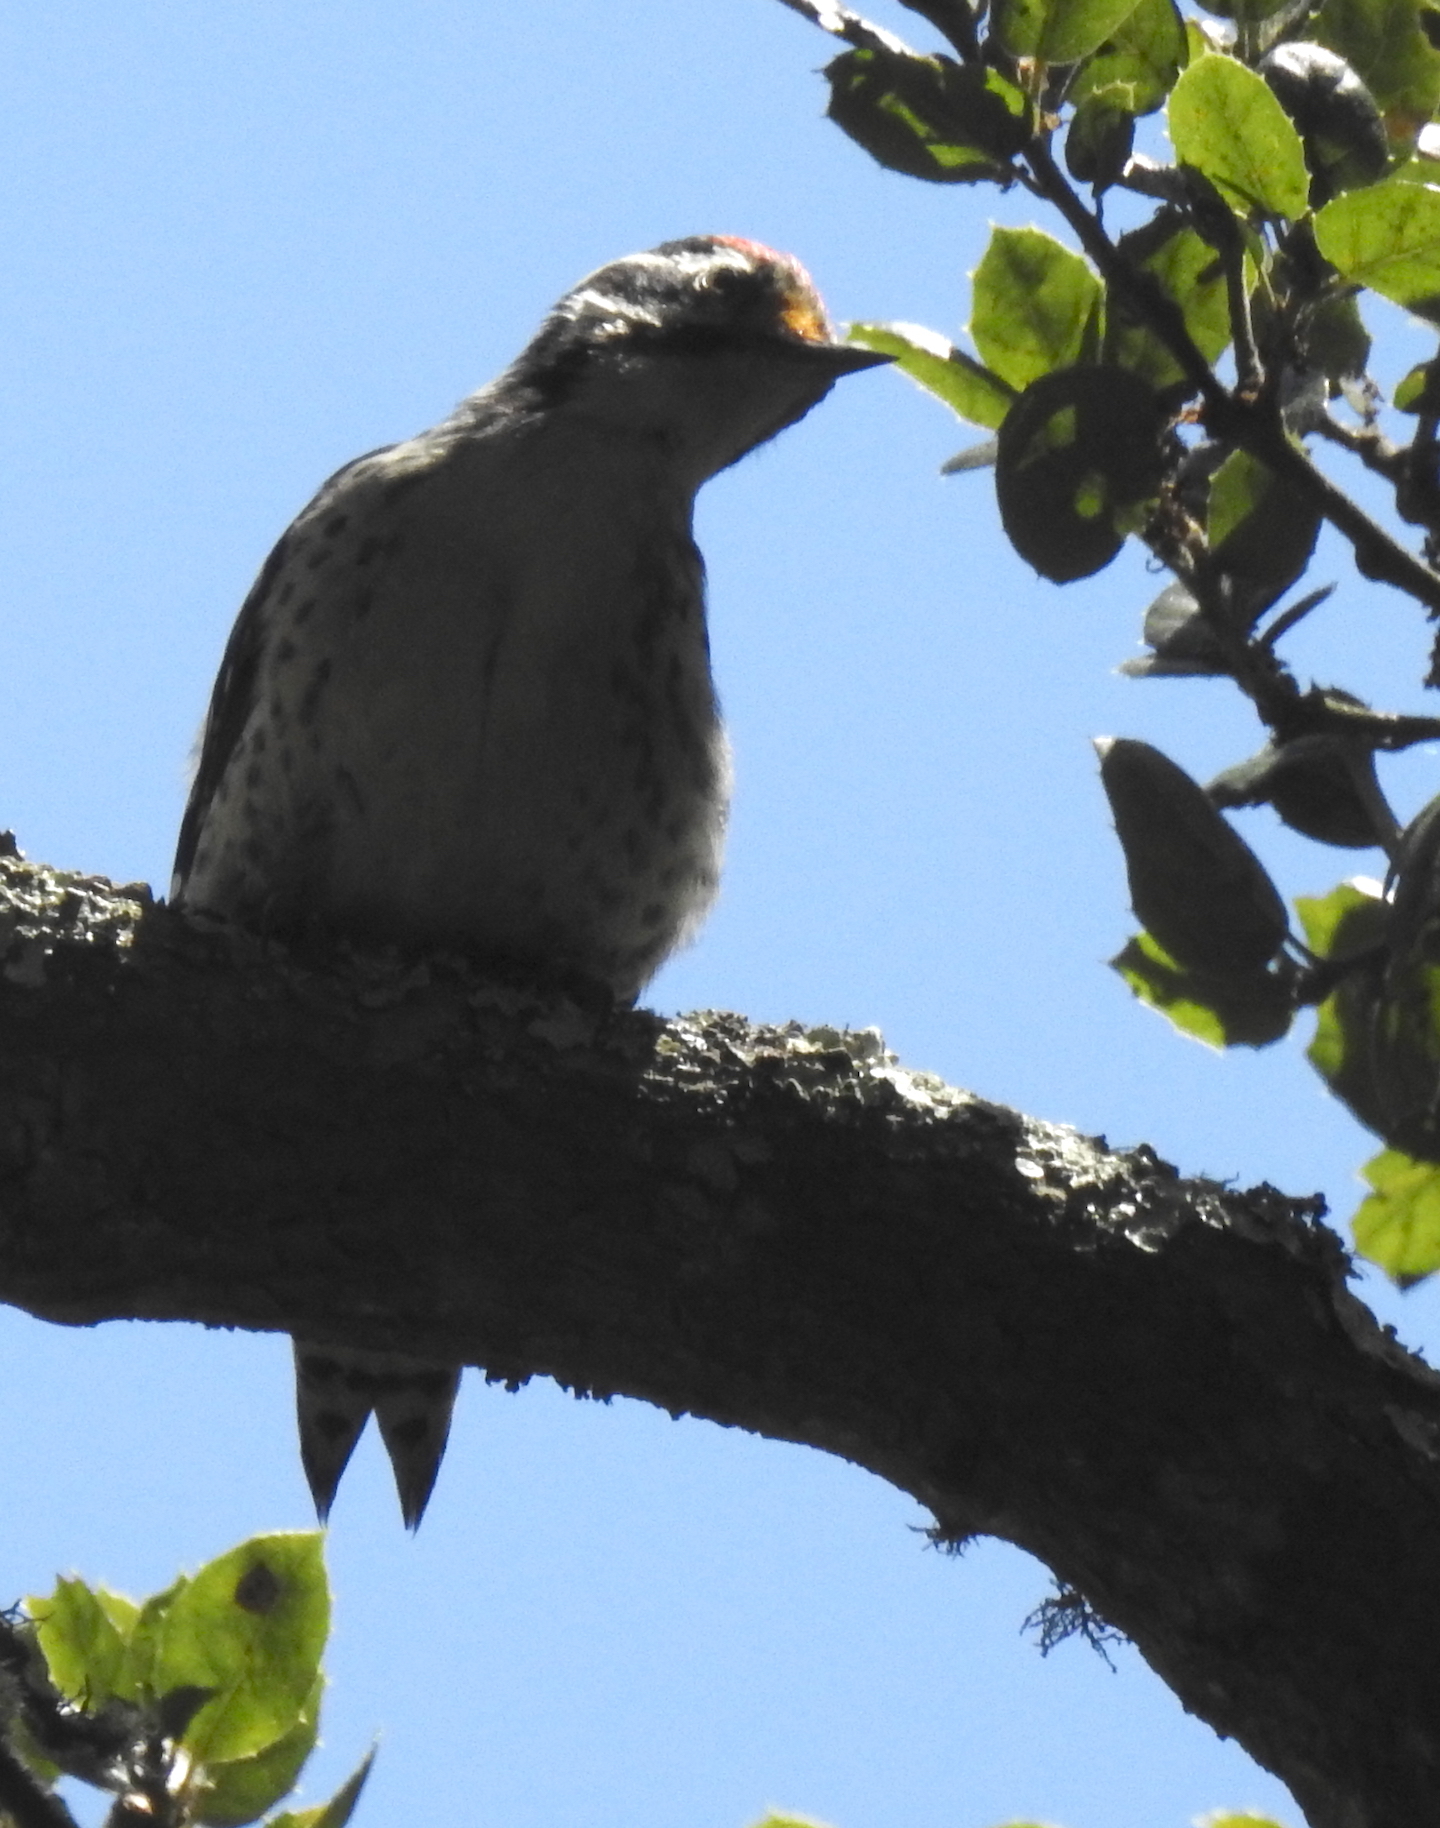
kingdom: Animalia
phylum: Chordata
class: Aves
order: Piciformes
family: Picidae
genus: Dryobates
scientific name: Dryobates nuttallii
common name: Nuttall's woodpecker
